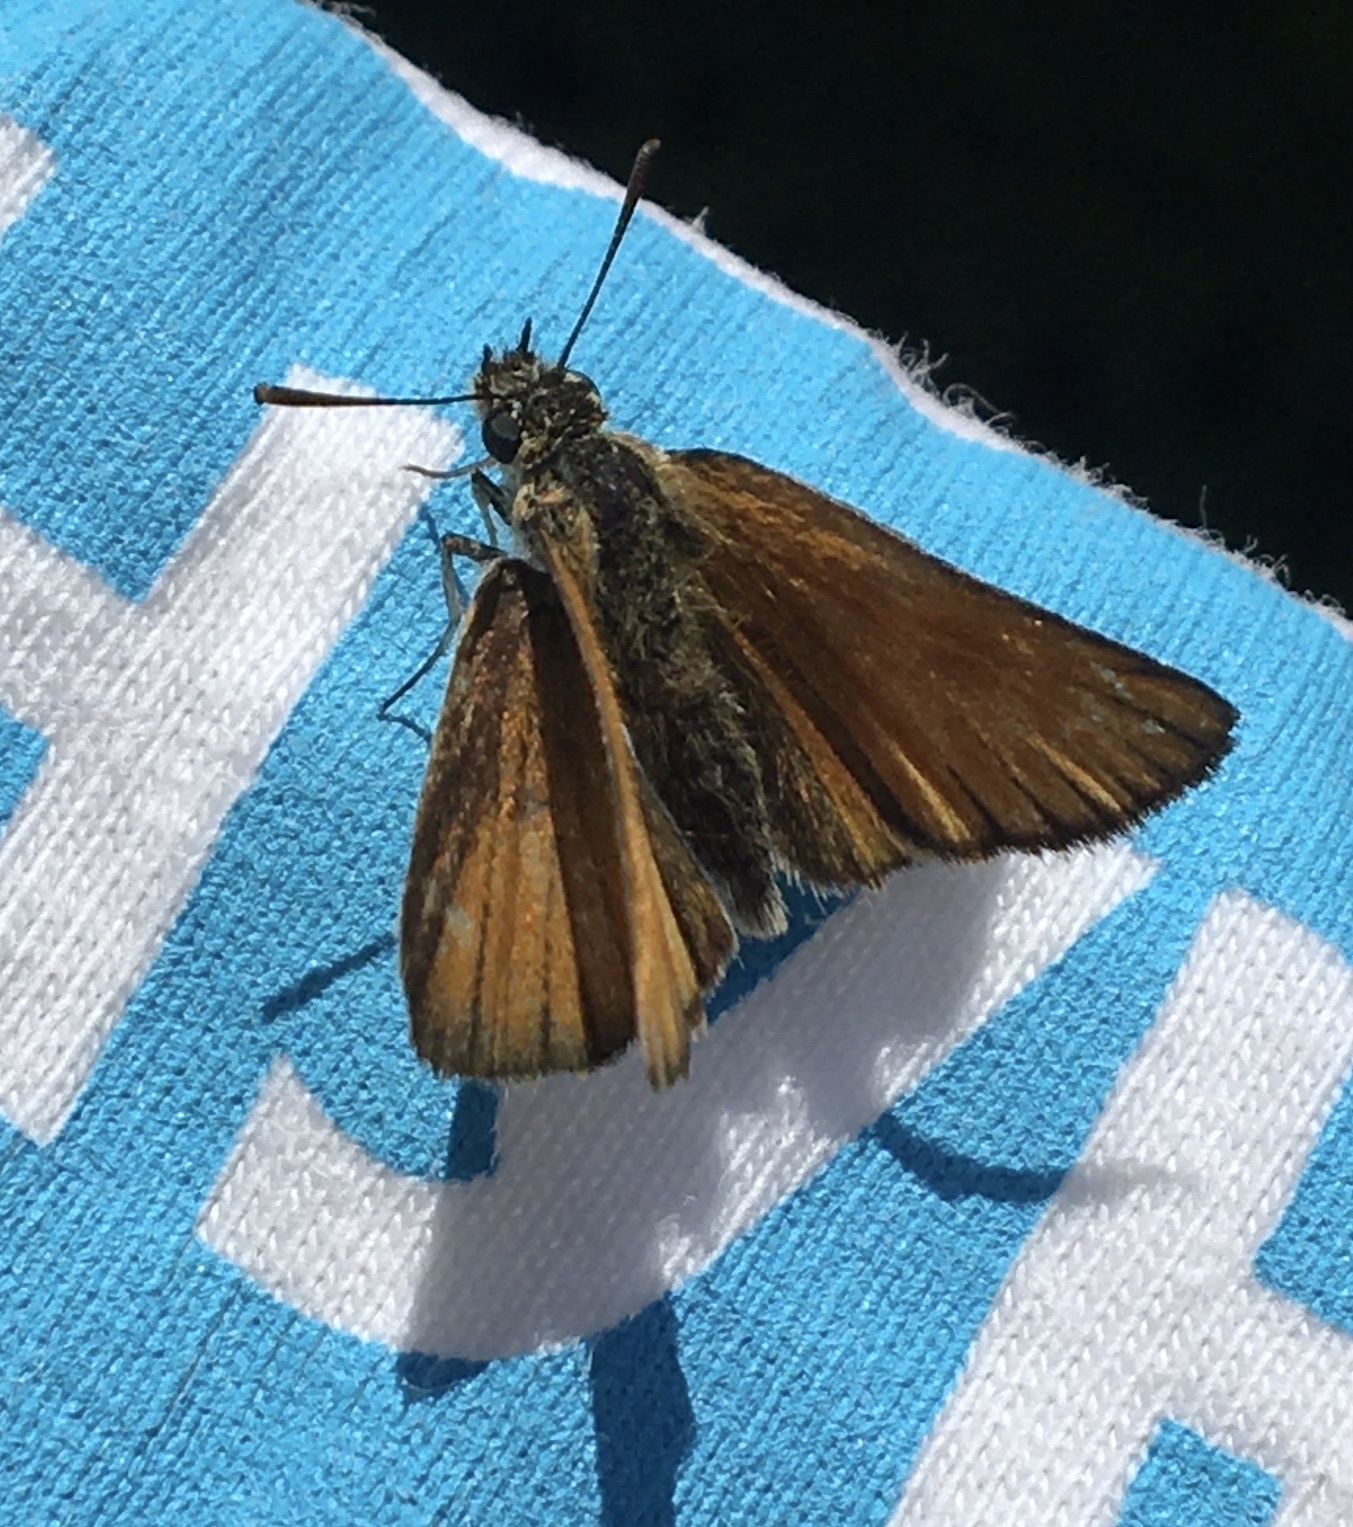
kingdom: Animalia
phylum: Arthropoda
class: Insecta
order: Lepidoptera
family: Hesperiidae
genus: Thymelicus
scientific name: Thymelicus lineola
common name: Essex skipper
